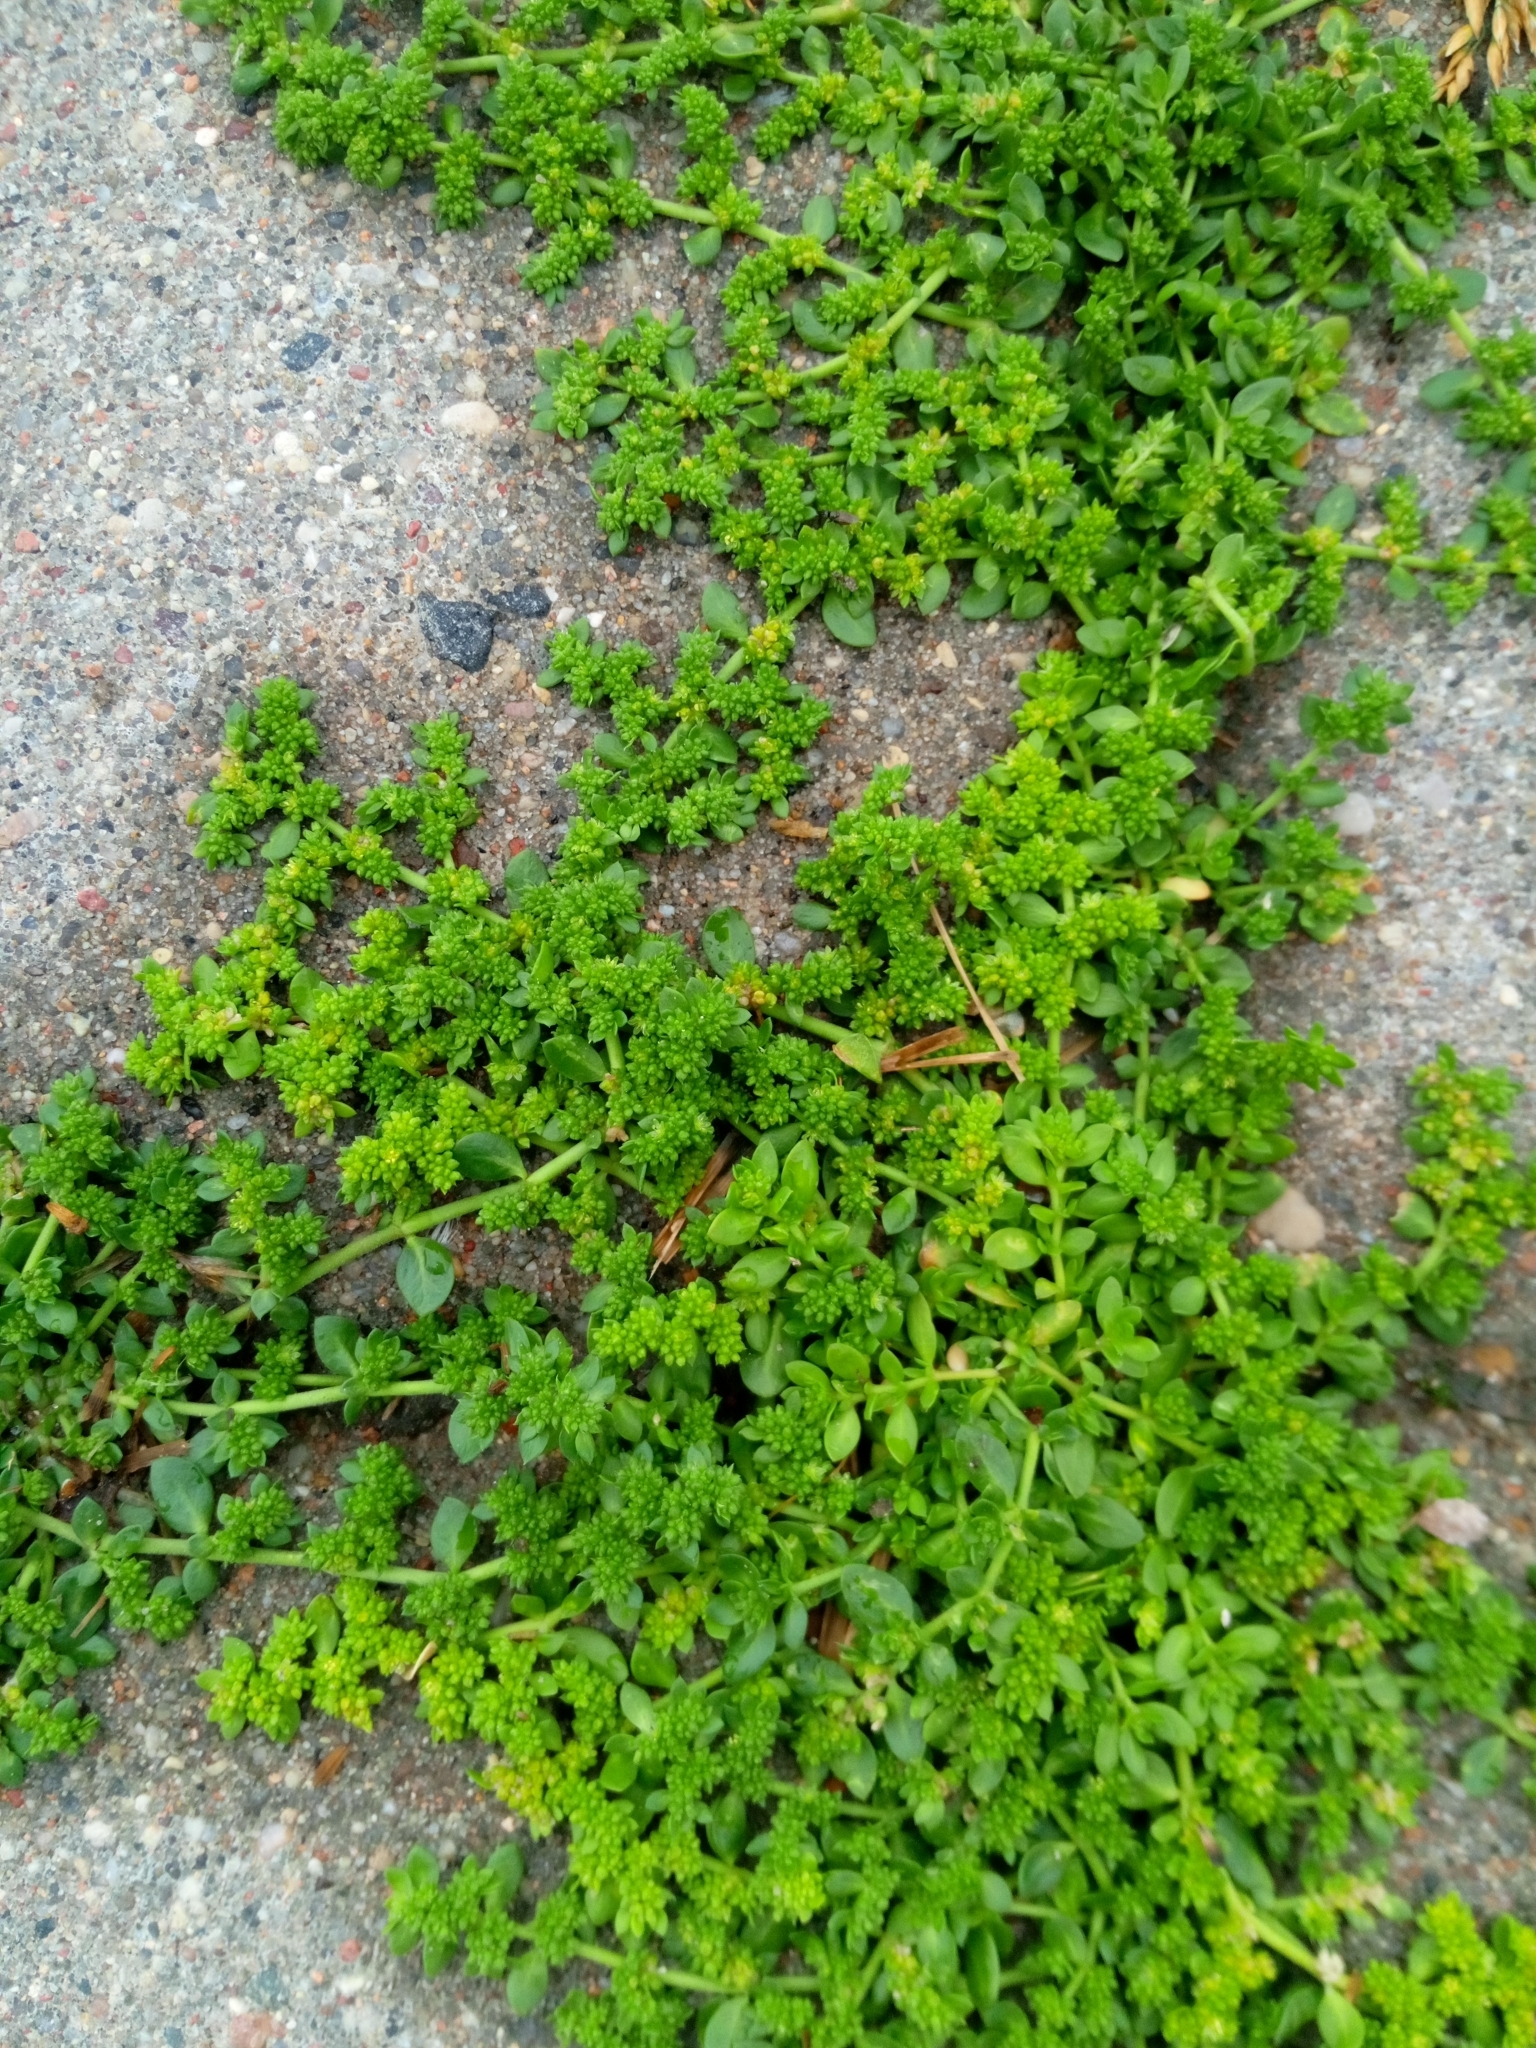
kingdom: Plantae
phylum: Tracheophyta
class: Magnoliopsida
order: Caryophyllales
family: Caryophyllaceae
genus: Herniaria
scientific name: Herniaria glabra
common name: Smooth rupturewort
